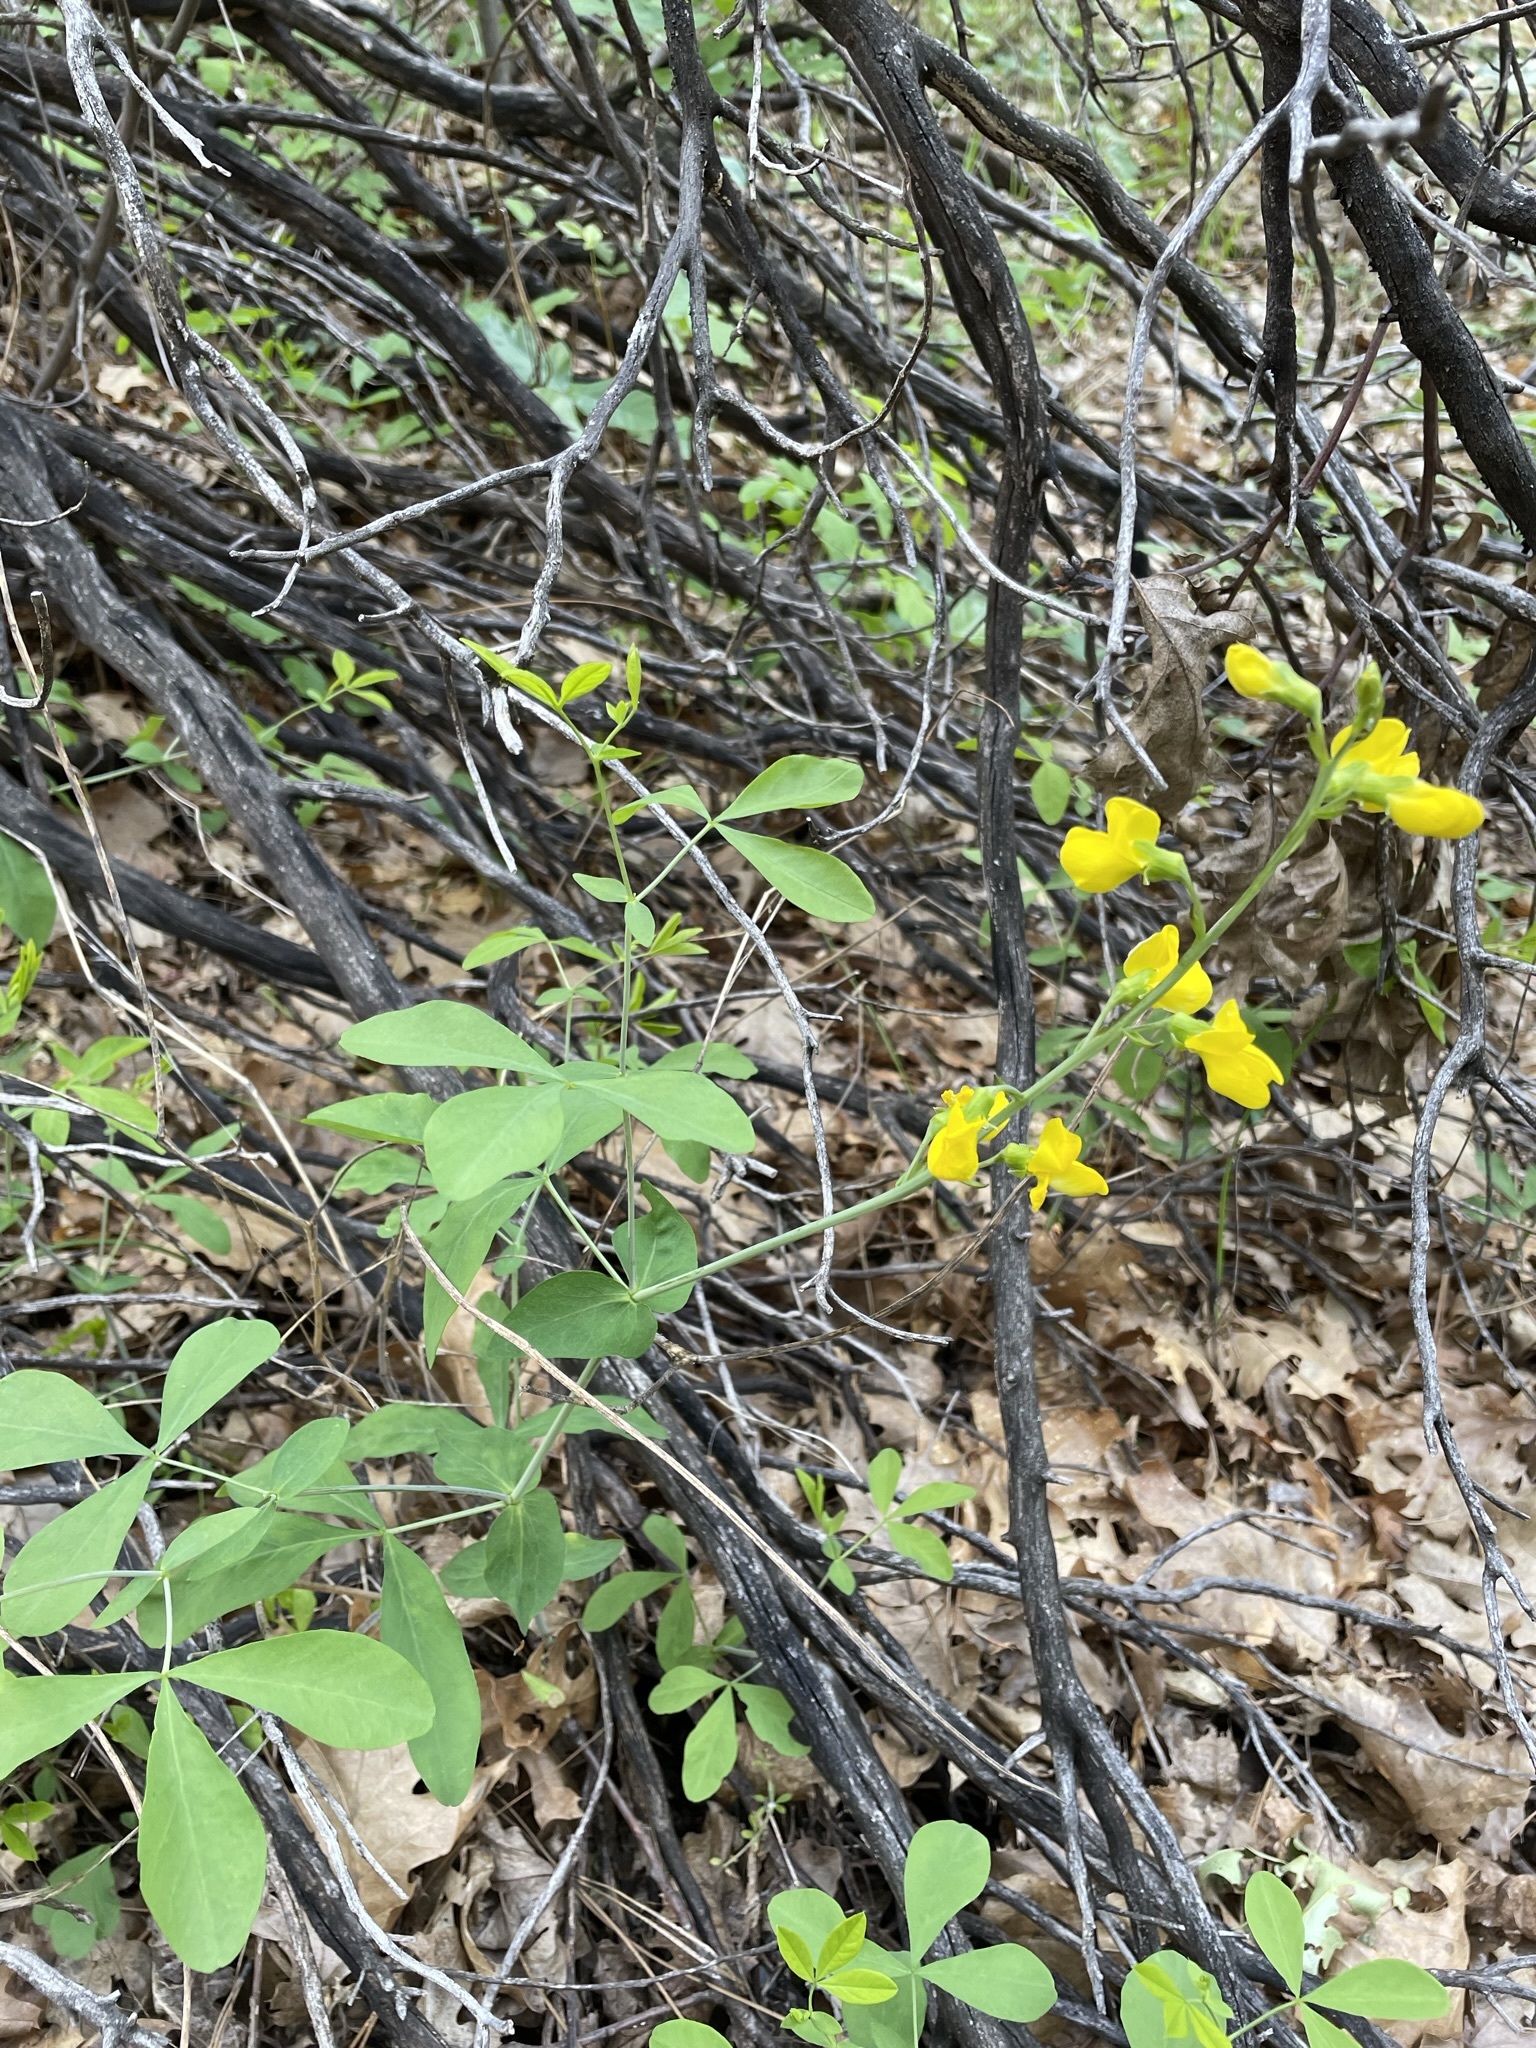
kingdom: Plantae
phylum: Tracheophyta
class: Magnoliopsida
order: Fabales
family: Fabaceae
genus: Thermopsis
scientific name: Thermopsis gracilis
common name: Slender golden-banner
